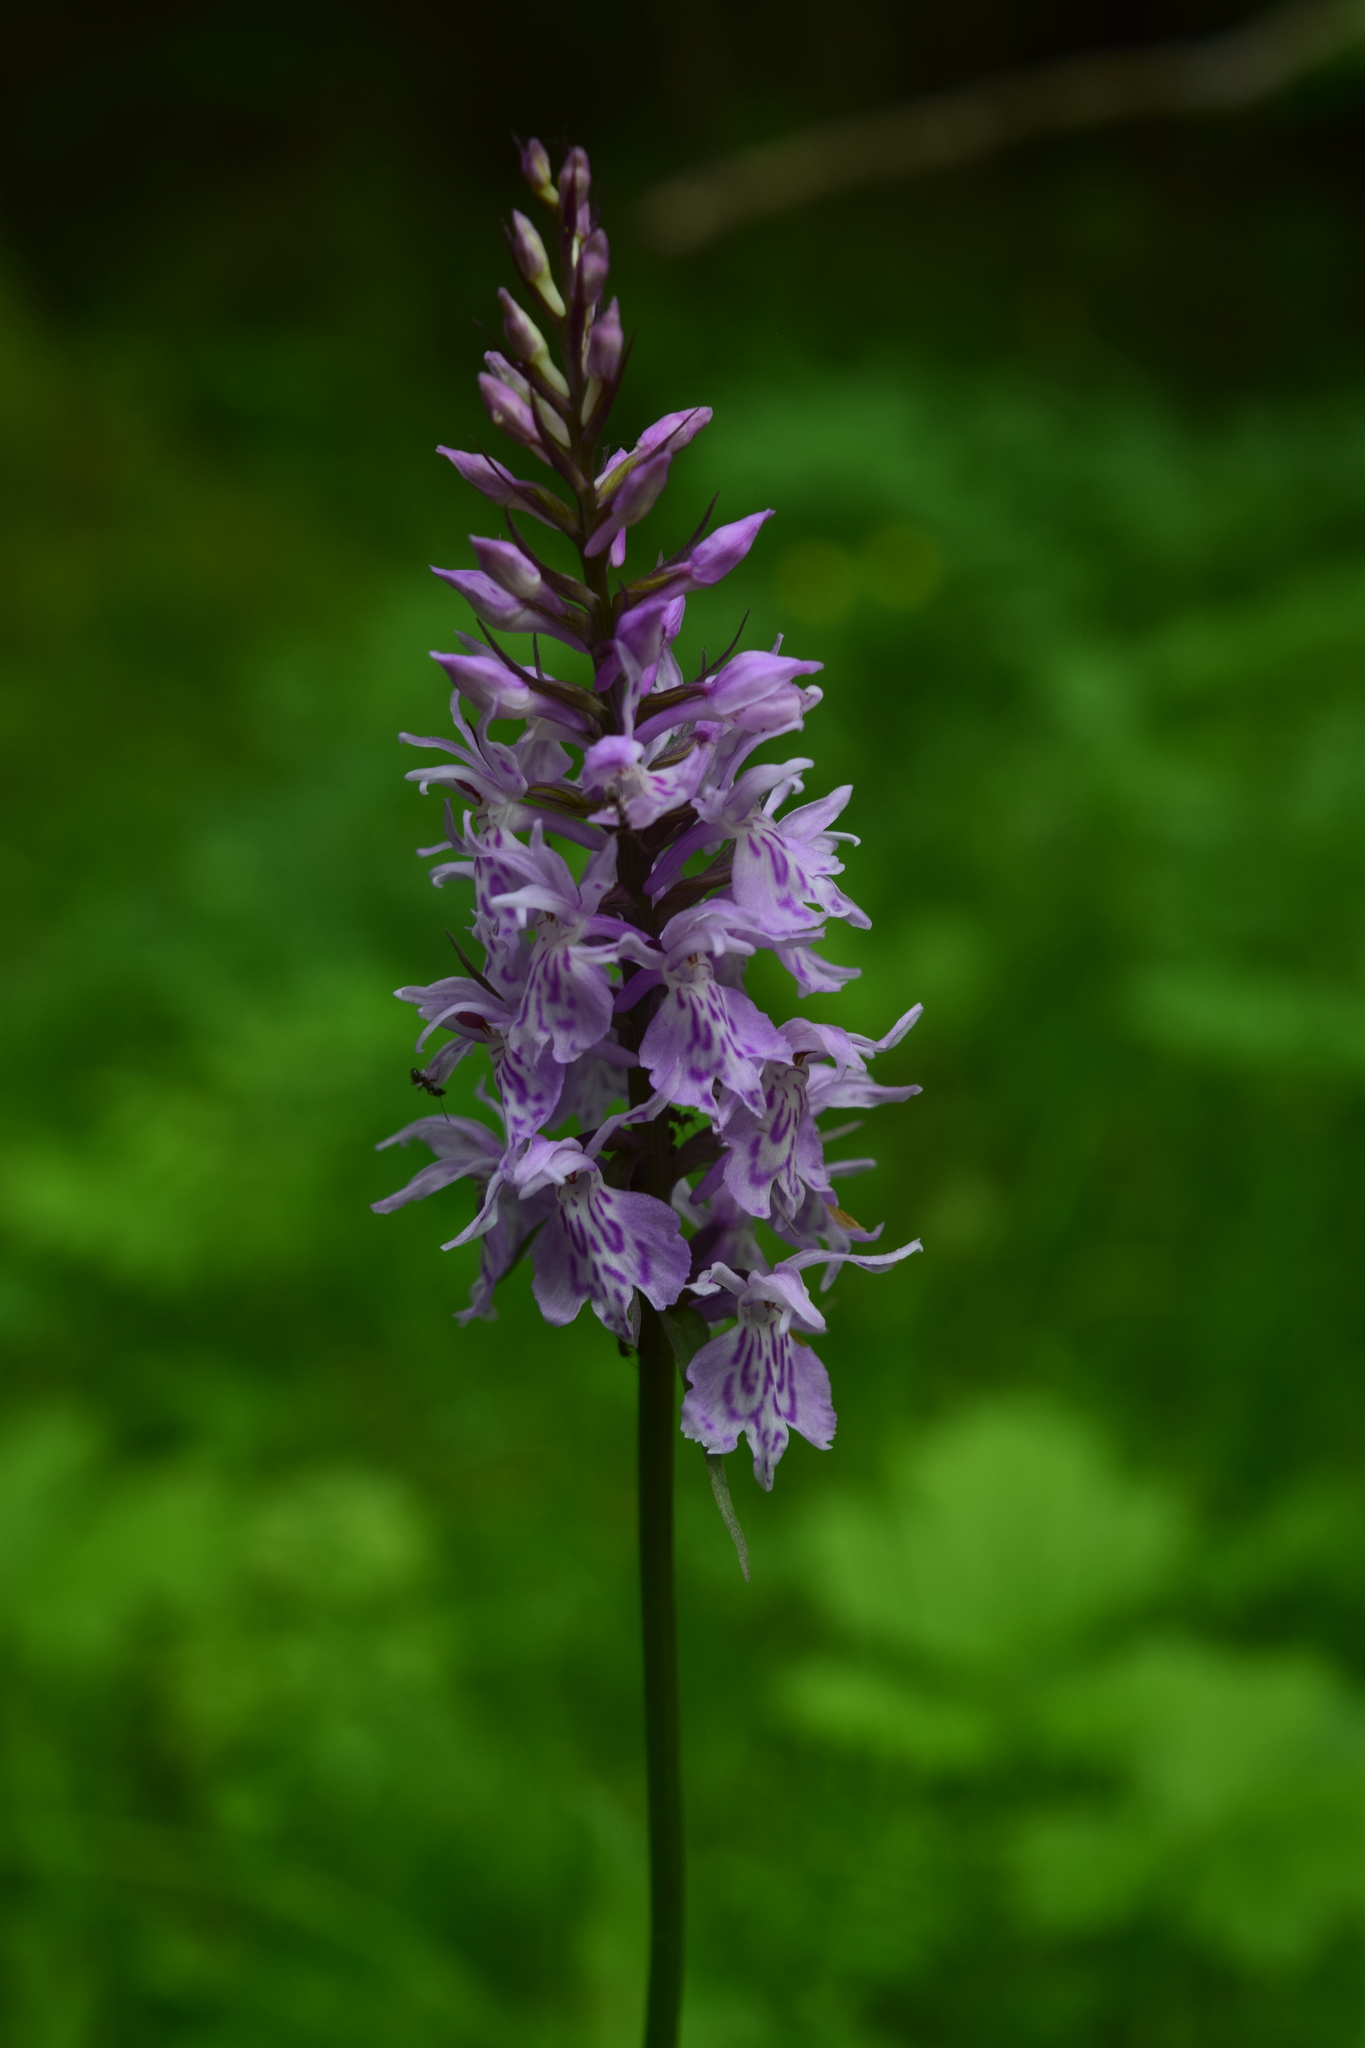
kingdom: Plantae
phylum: Tracheophyta
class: Liliopsida
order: Asparagales
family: Orchidaceae
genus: Dactylorhiza
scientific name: Dactylorhiza maculata
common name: Heath spotted-orchid
